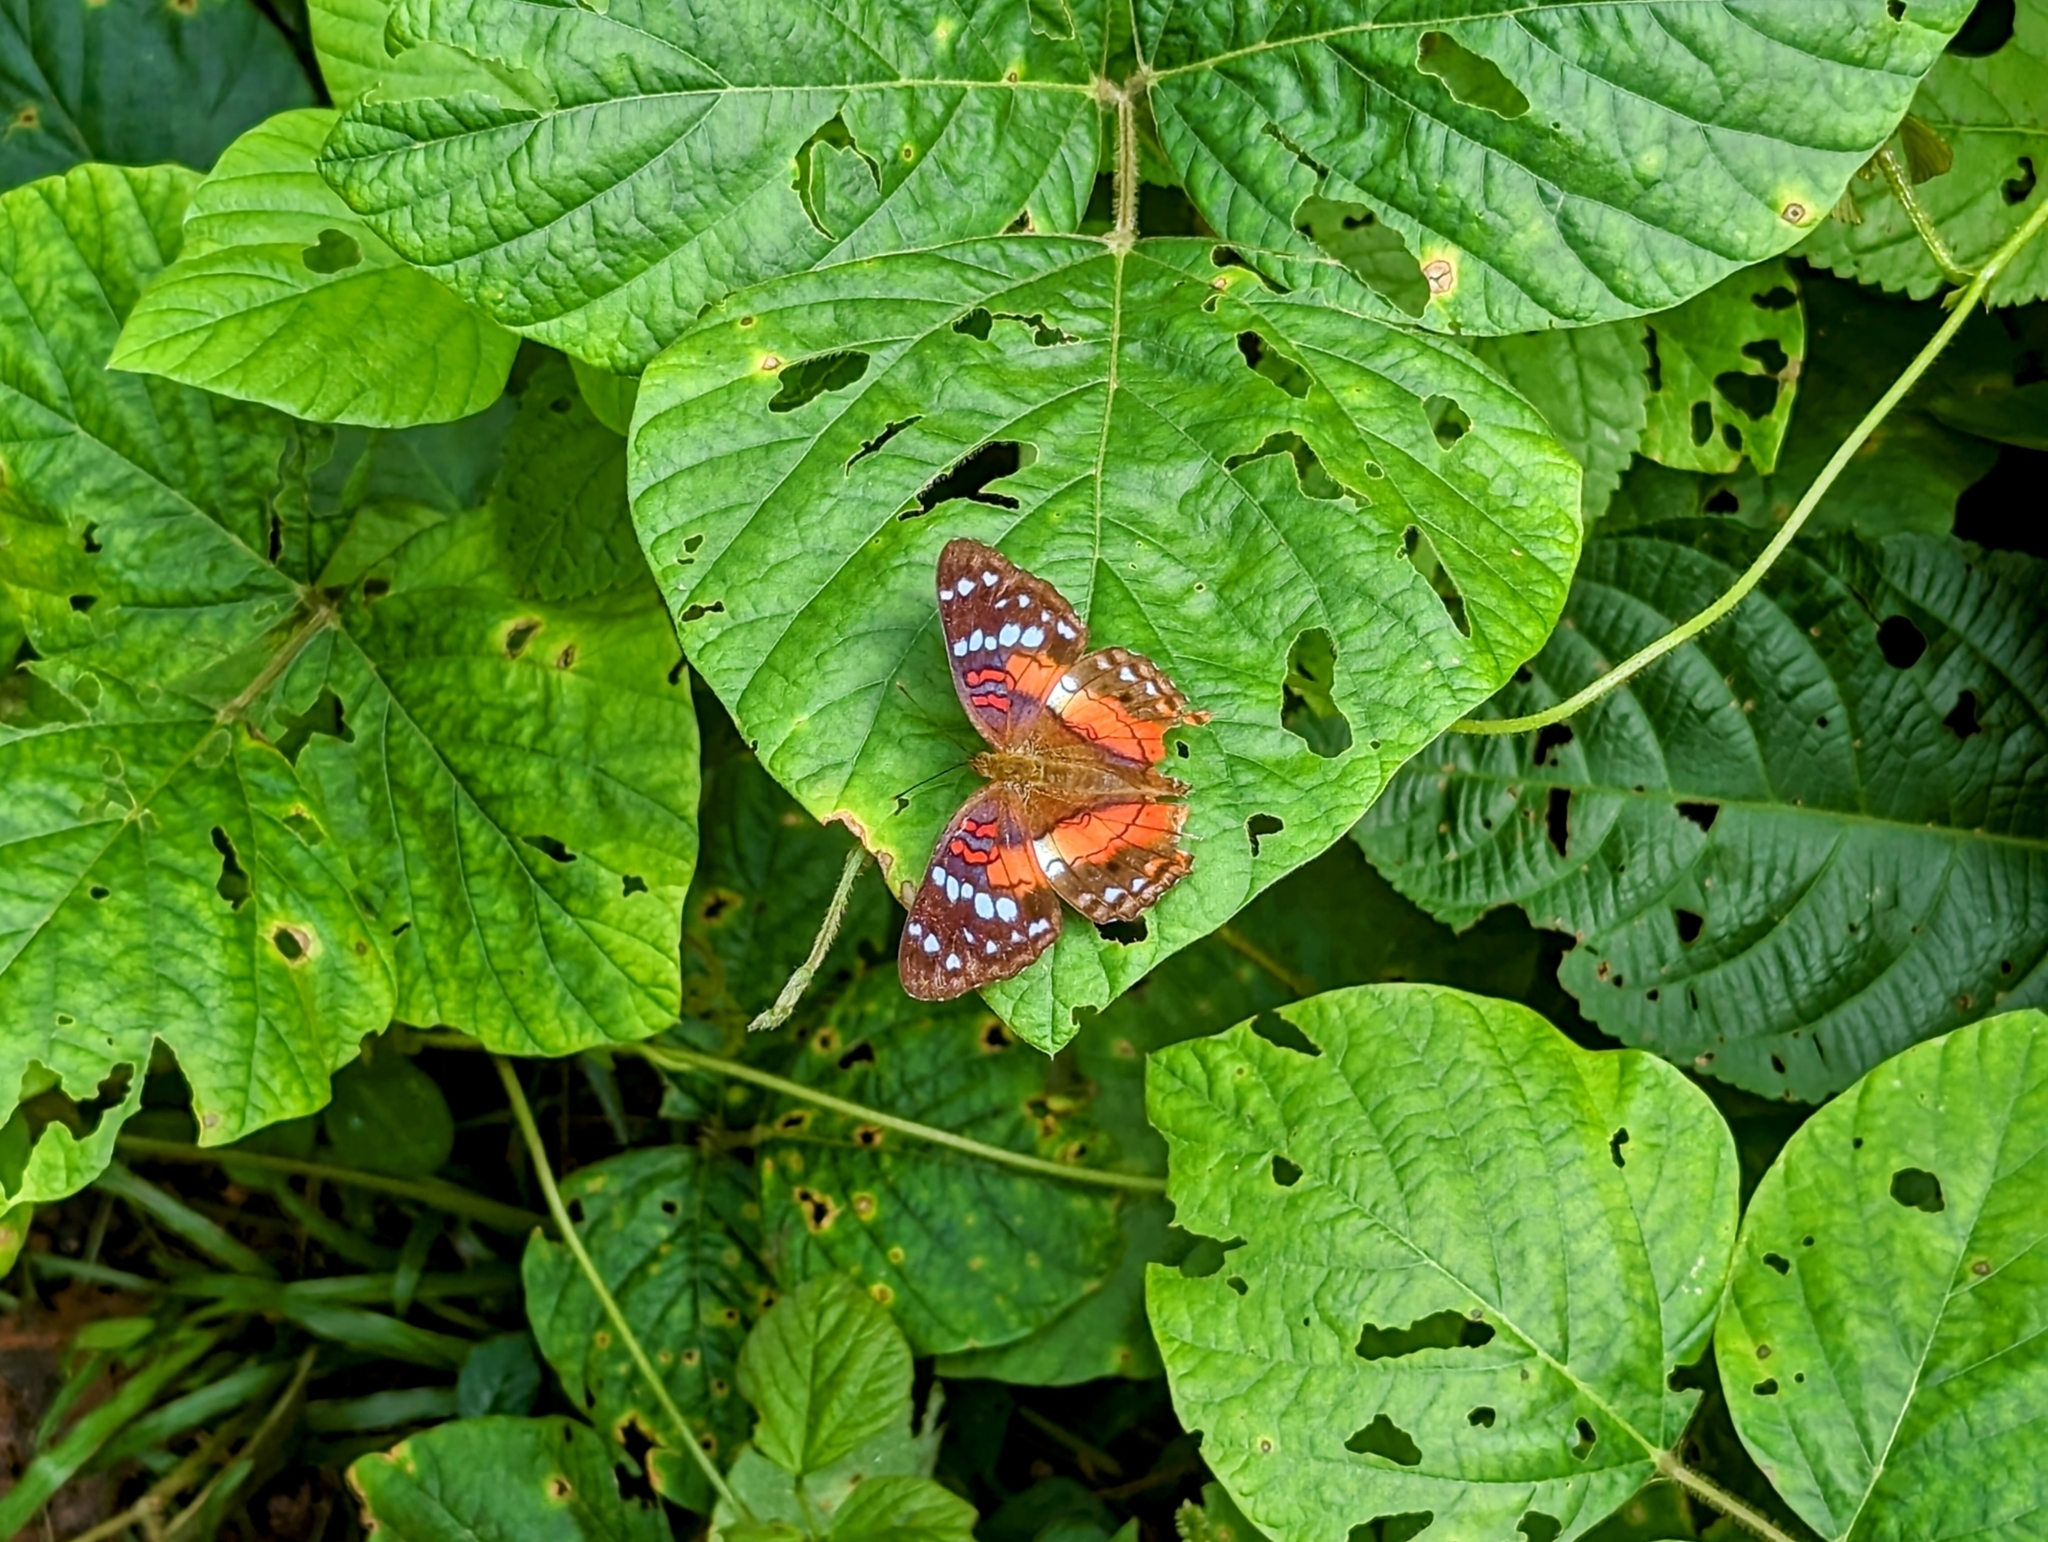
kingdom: Animalia
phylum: Arthropoda
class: Insecta
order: Lepidoptera
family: Nymphalidae
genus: Anartia
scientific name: Anartia amathea
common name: Red peacock
